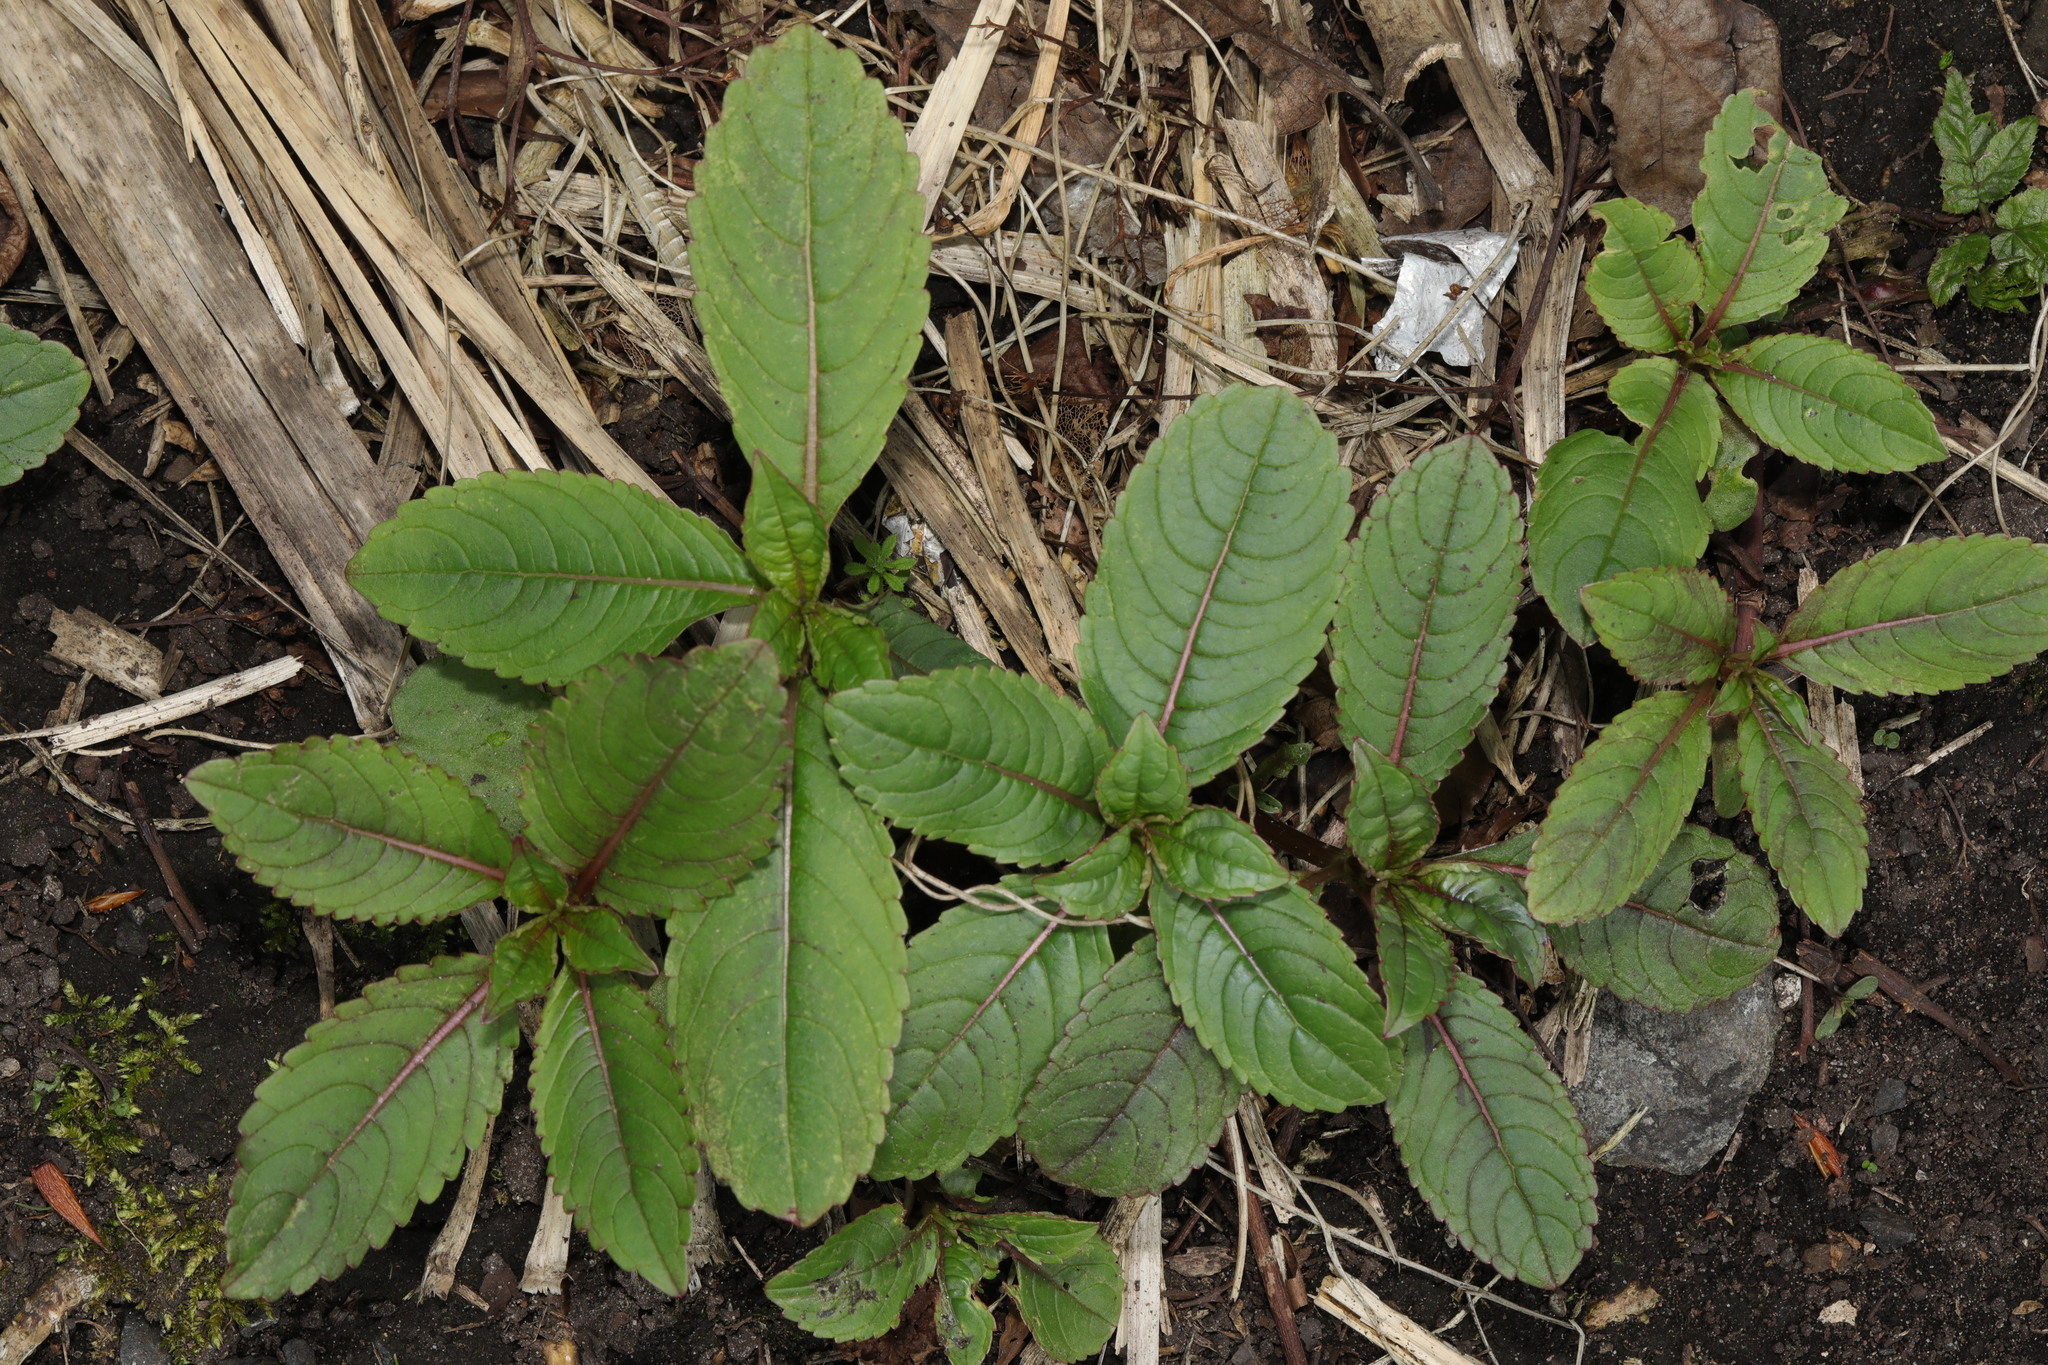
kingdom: Plantae
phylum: Tracheophyta
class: Magnoliopsida
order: Ericales
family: Balsaminaceae
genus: Impatiens
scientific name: Impatiens glandulifera
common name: Himalayan balsam
